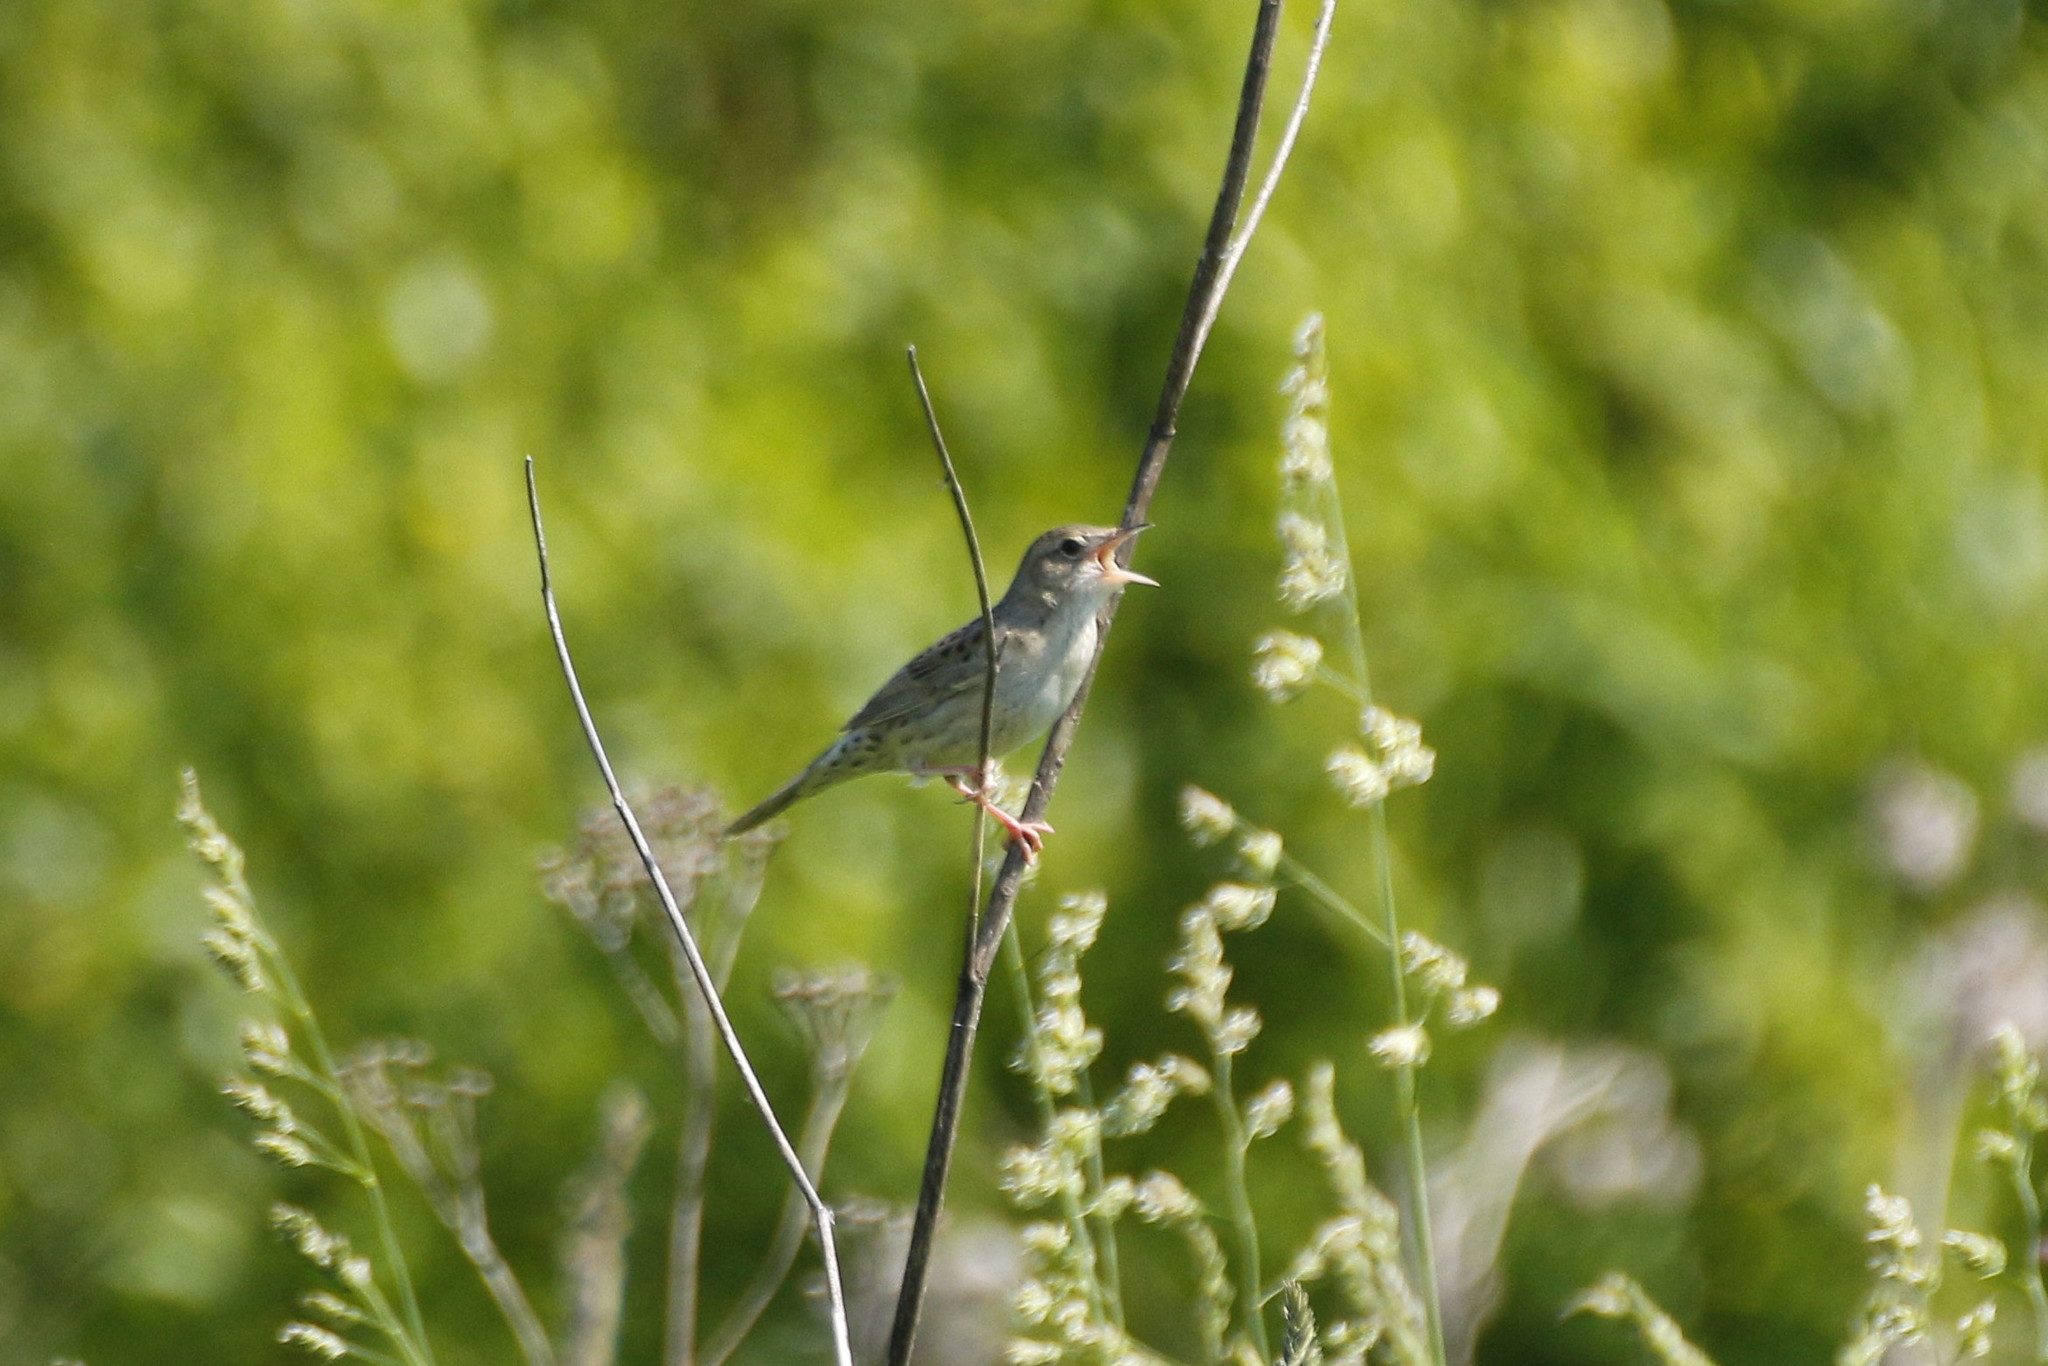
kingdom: Animalia
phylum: Chordata
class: Aves
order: Passeriformes
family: Locustellidae
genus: Locustella
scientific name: Locustella naevia
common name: Common grasshopper warbler
